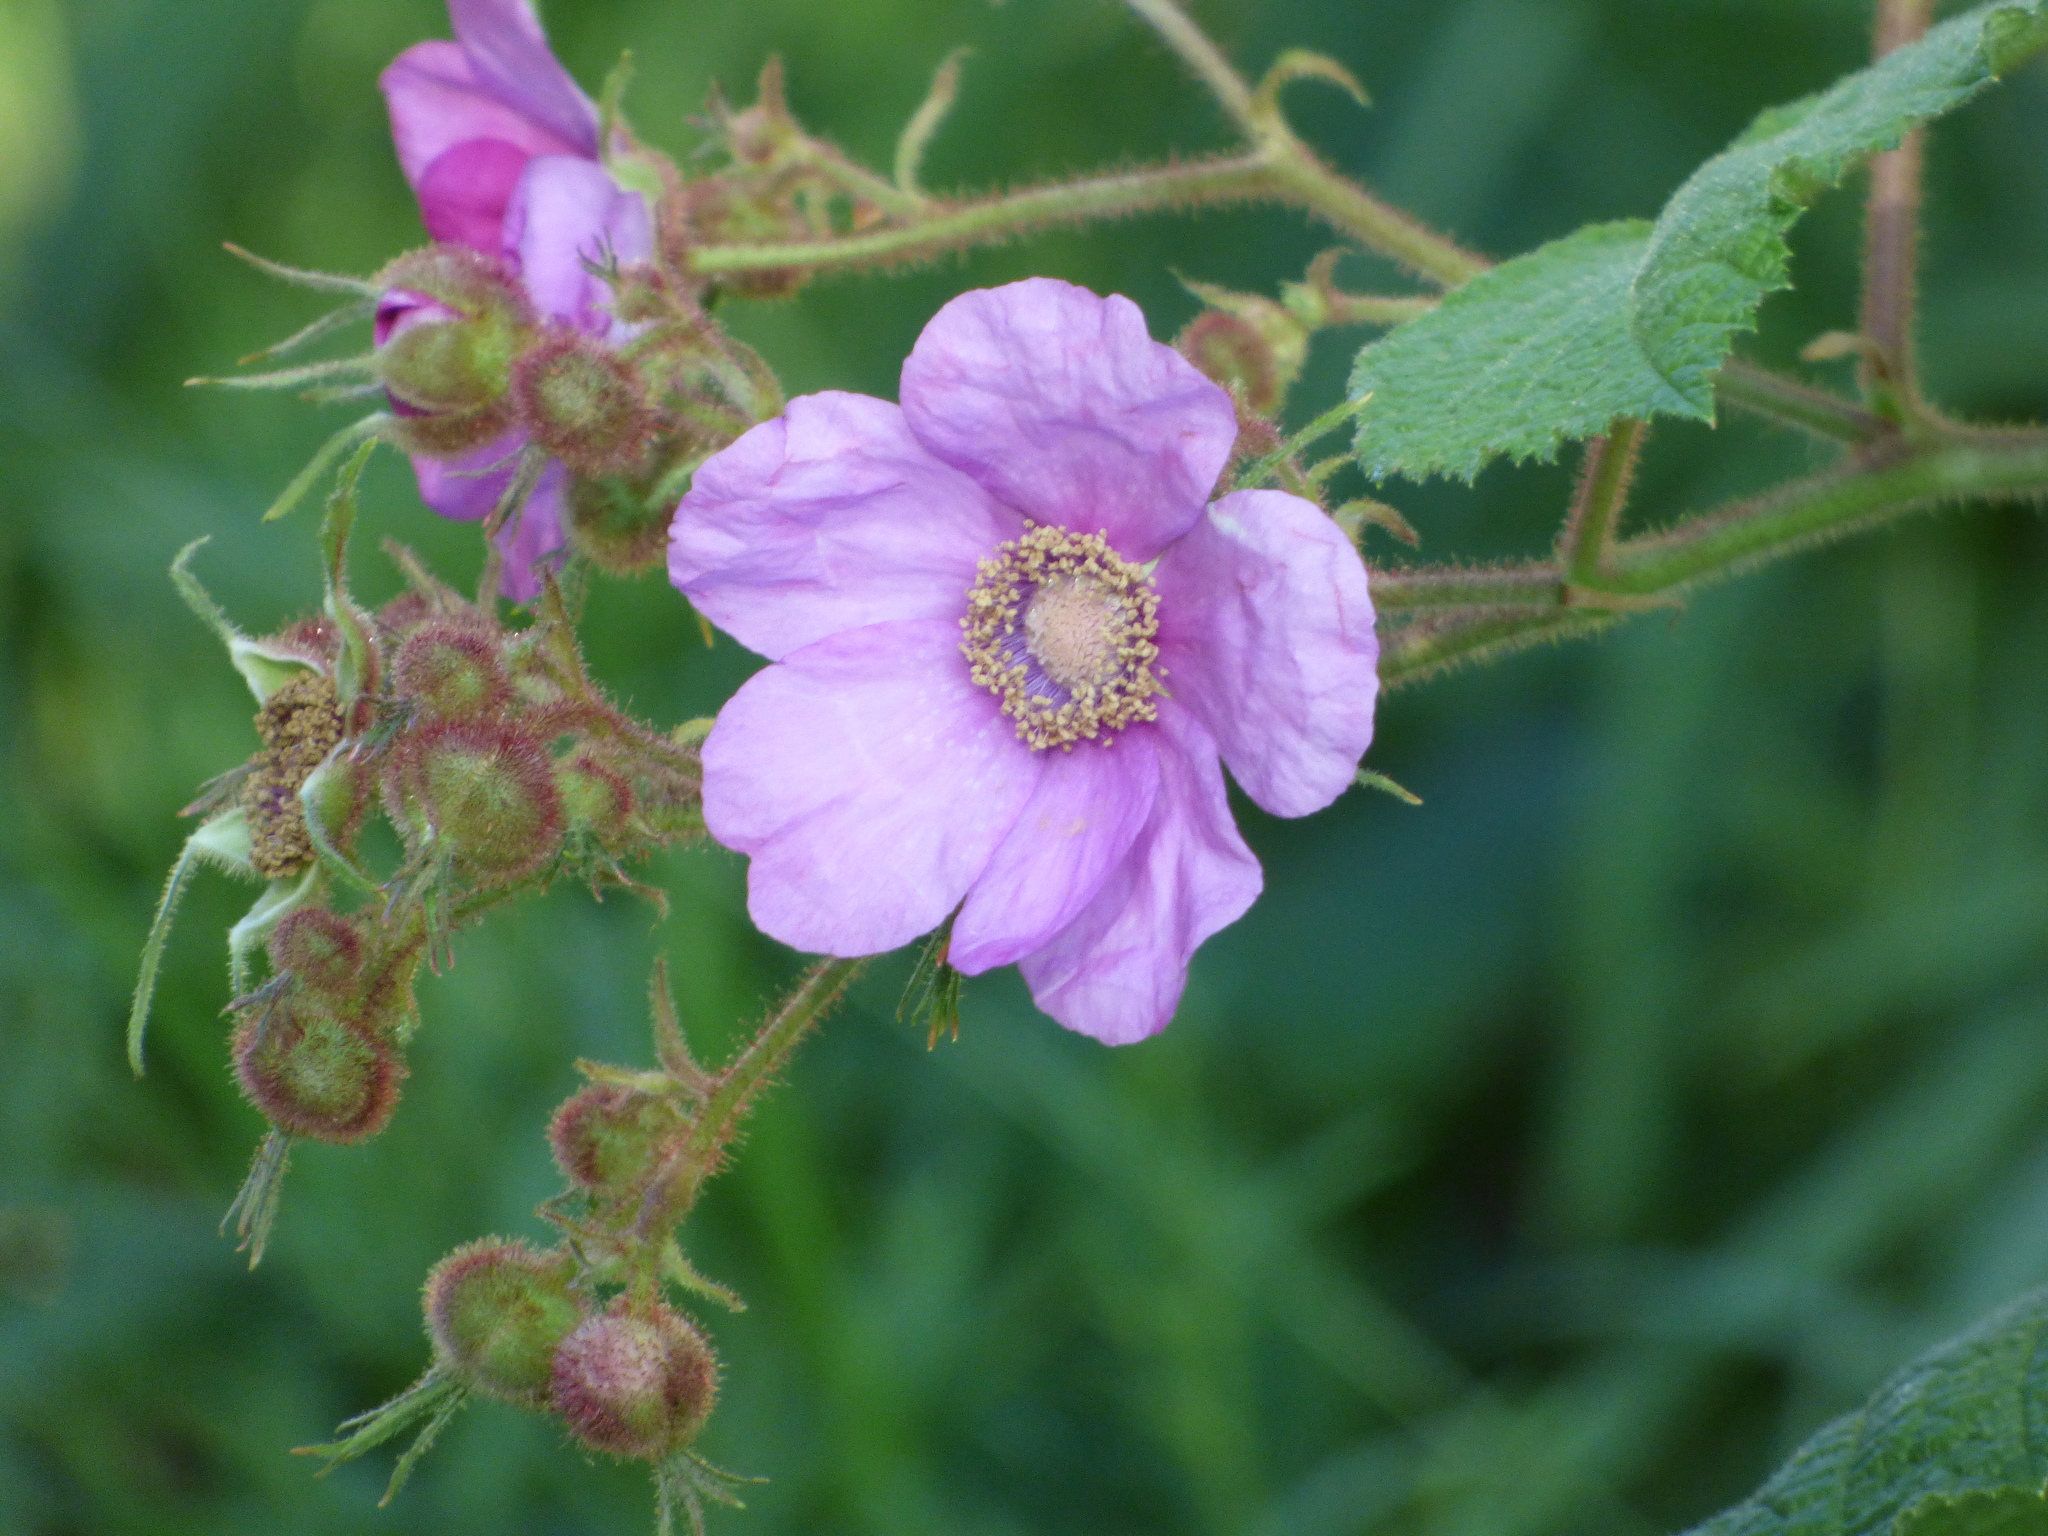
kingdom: Plantae
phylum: Tracheophyta
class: Magnoliopsida
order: Rosales
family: Rosaceae
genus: Rubus
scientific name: Rubus odoratus
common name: Purple-flowered raspberry
